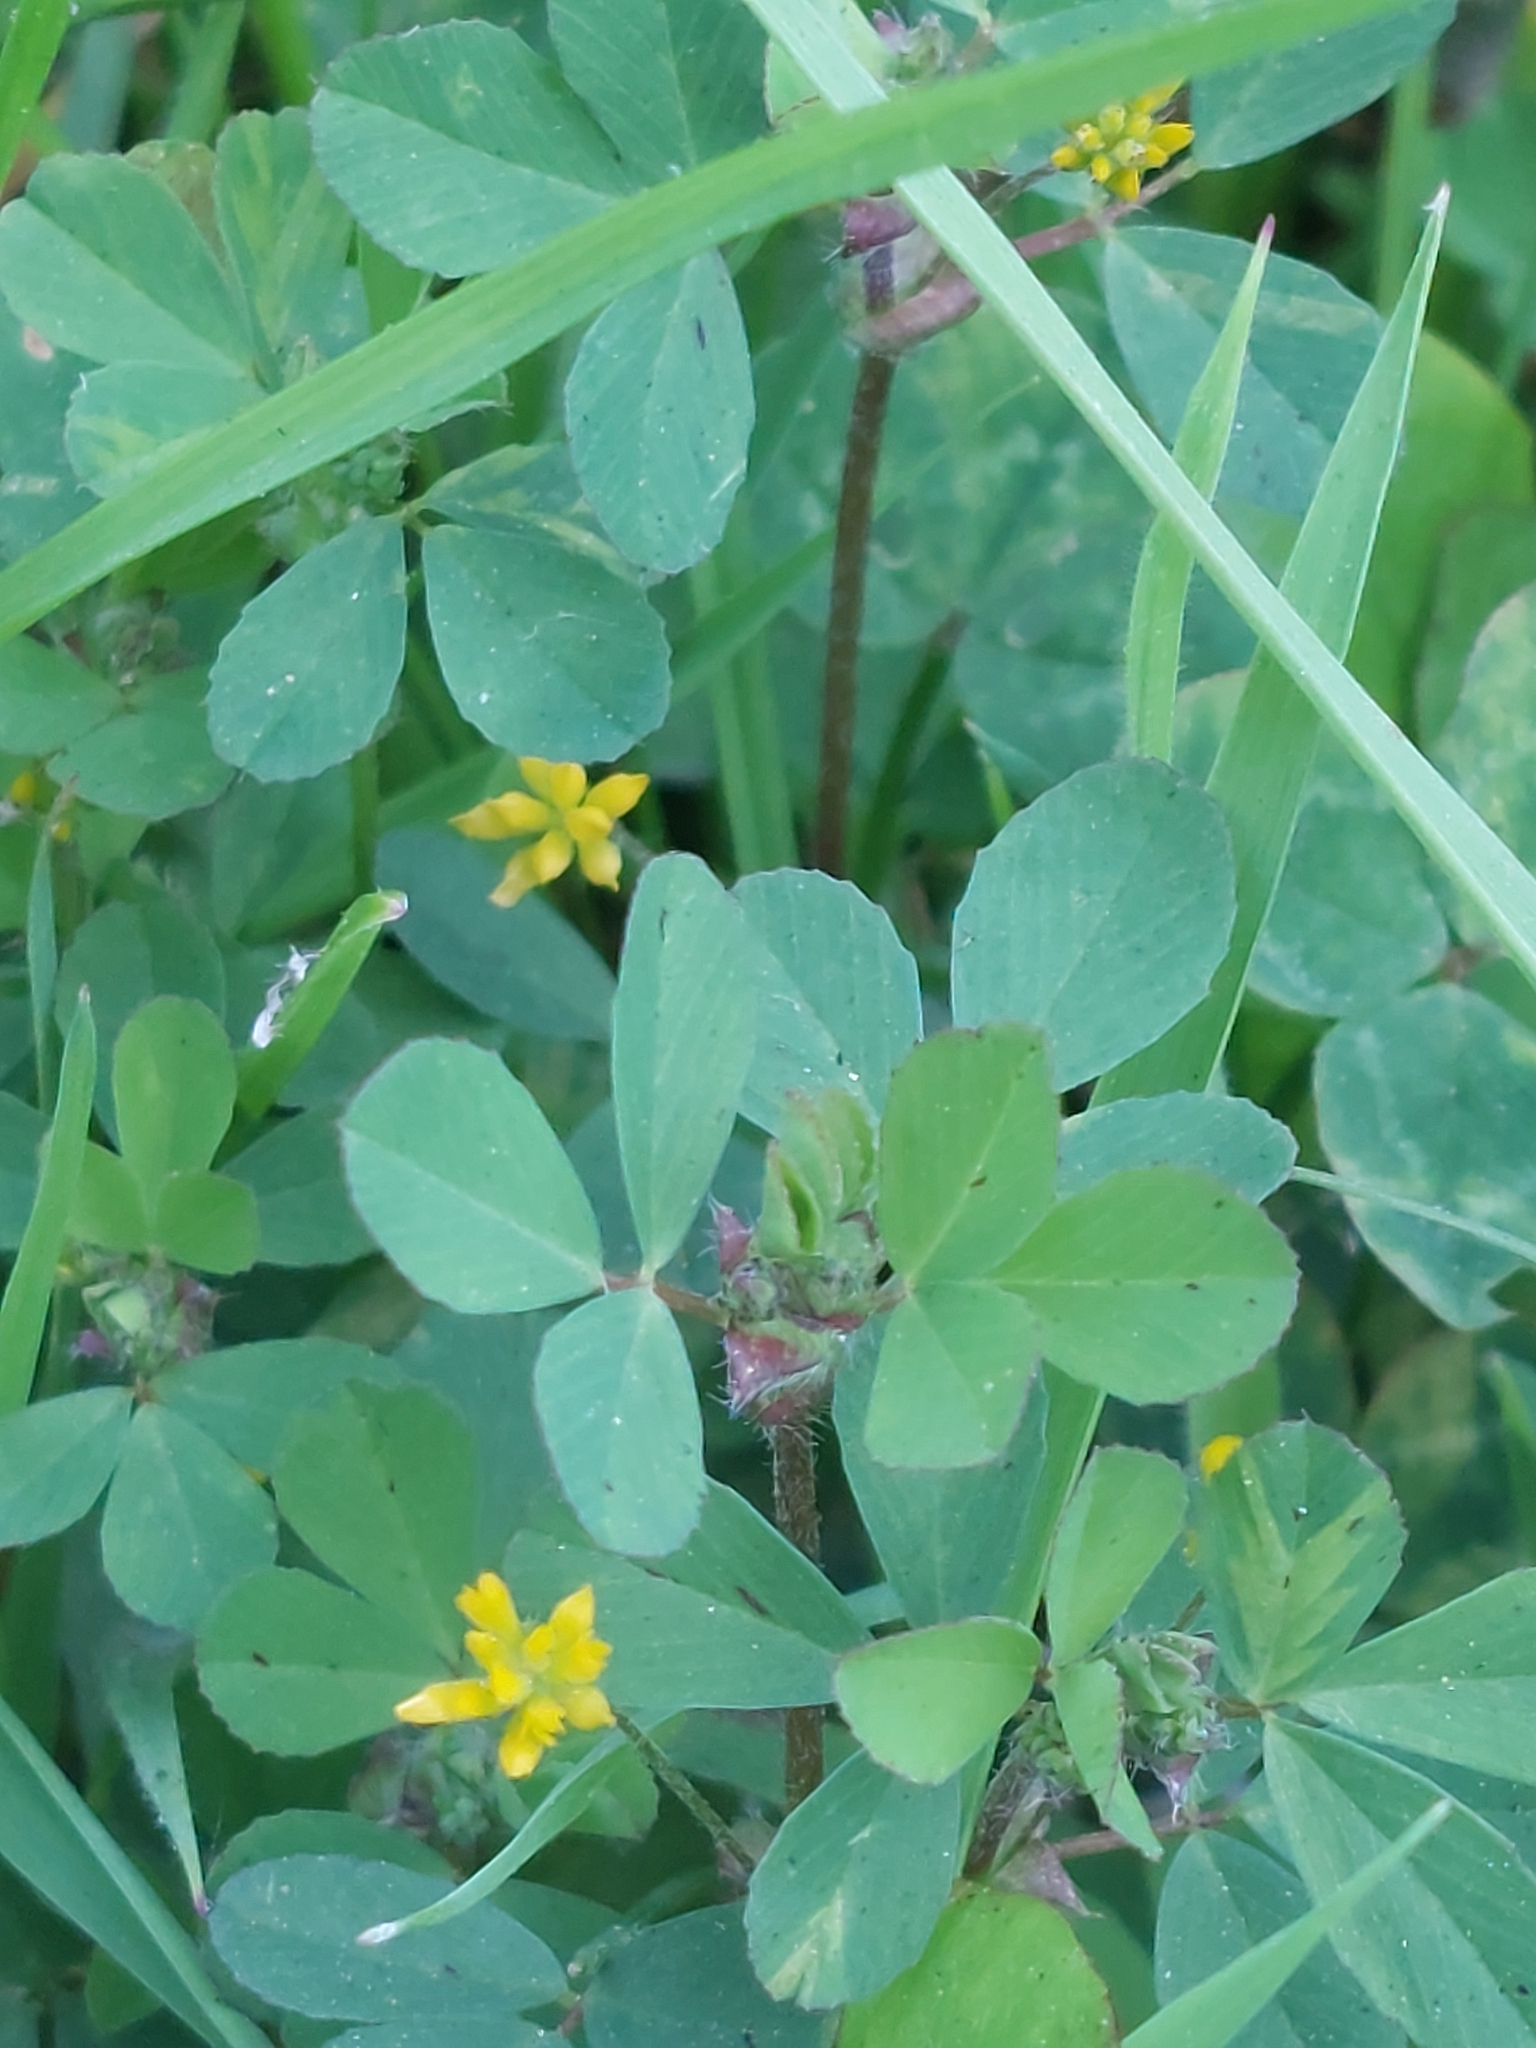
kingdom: Plantae
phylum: Tracheophyta
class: Magnoliopsida
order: Fabales
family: Fabaceae
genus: Trifolium
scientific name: Trifolium dubium
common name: Suckling clover
